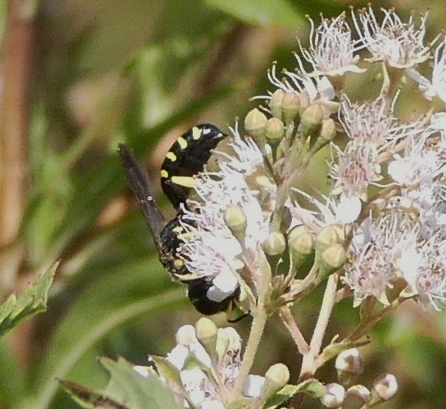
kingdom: Animalia
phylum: Arthropoda
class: Insecta
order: Hymenoptera
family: Crabronidae
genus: Ectemnius
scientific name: Ectemnius maculosus
